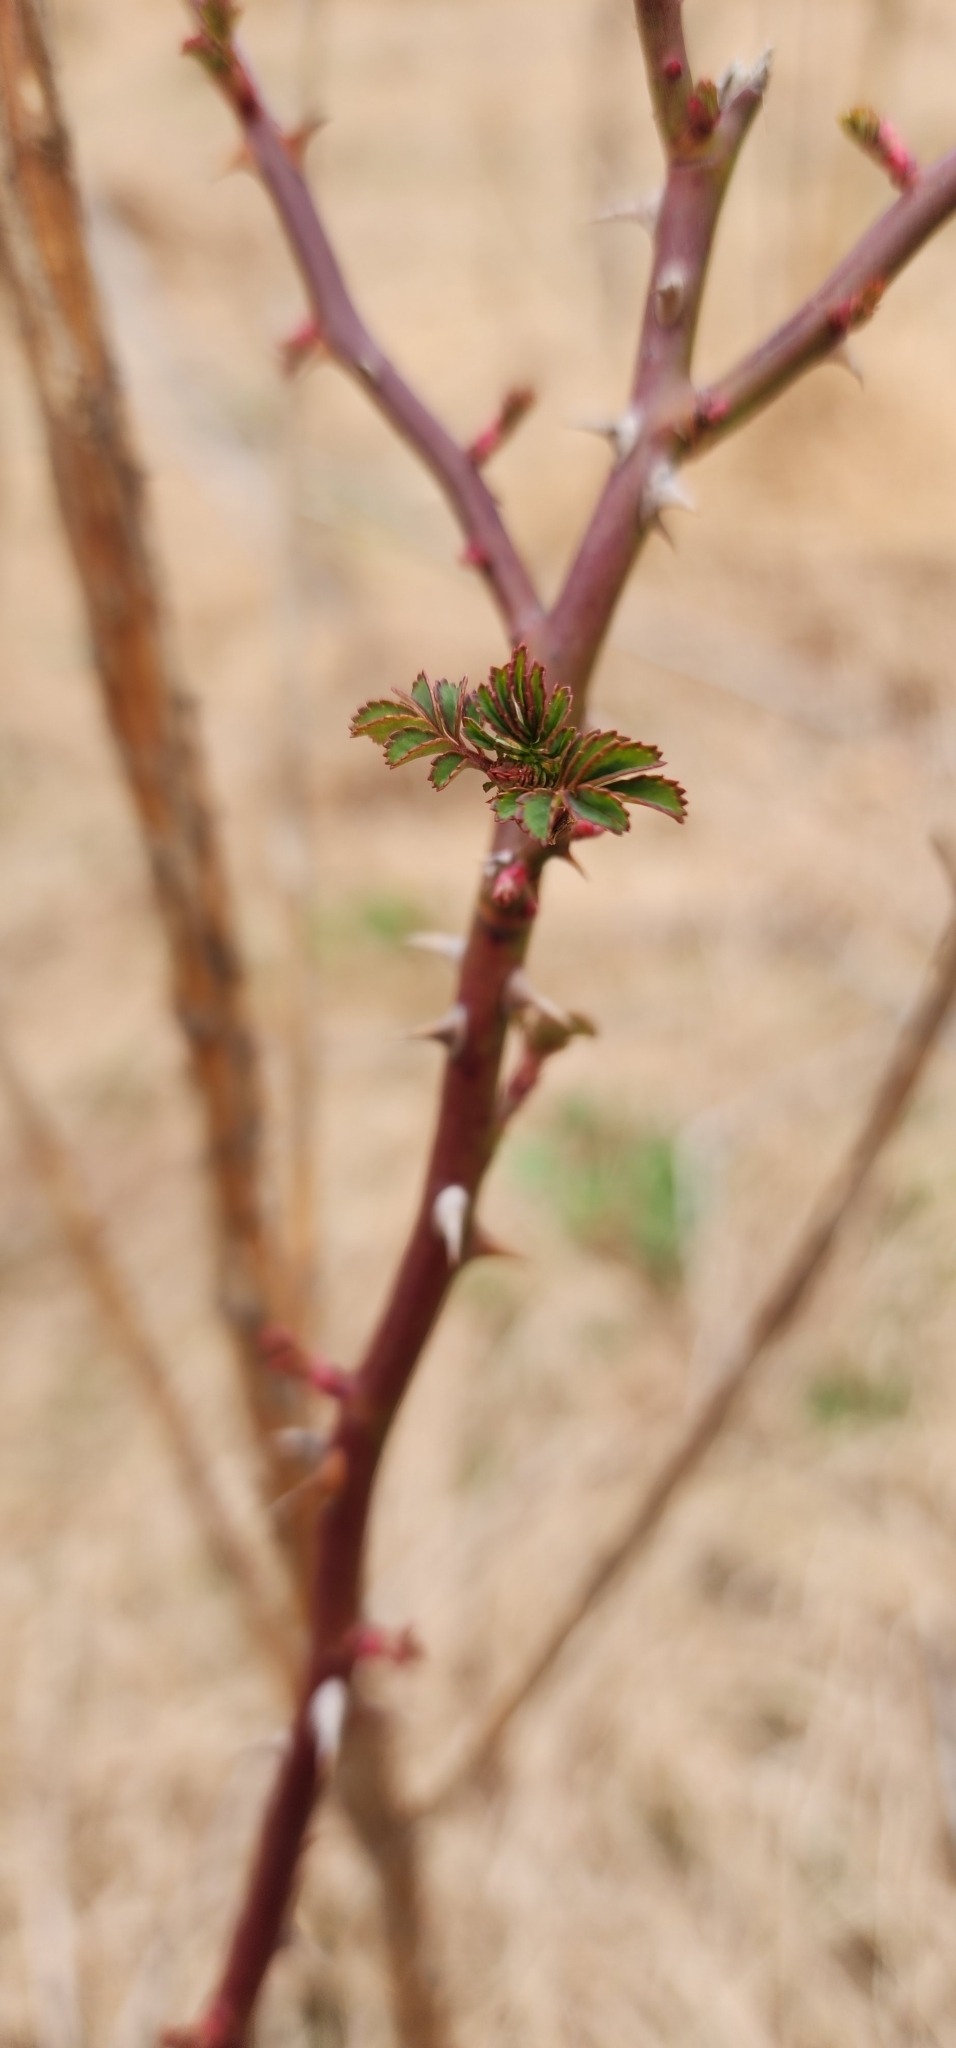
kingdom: Plantae
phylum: Tracheophyta
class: Magnoliopsida
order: Rosales
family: Rosaceae
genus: Rosa
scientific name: Rosa multiflora
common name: Multiflora rose
